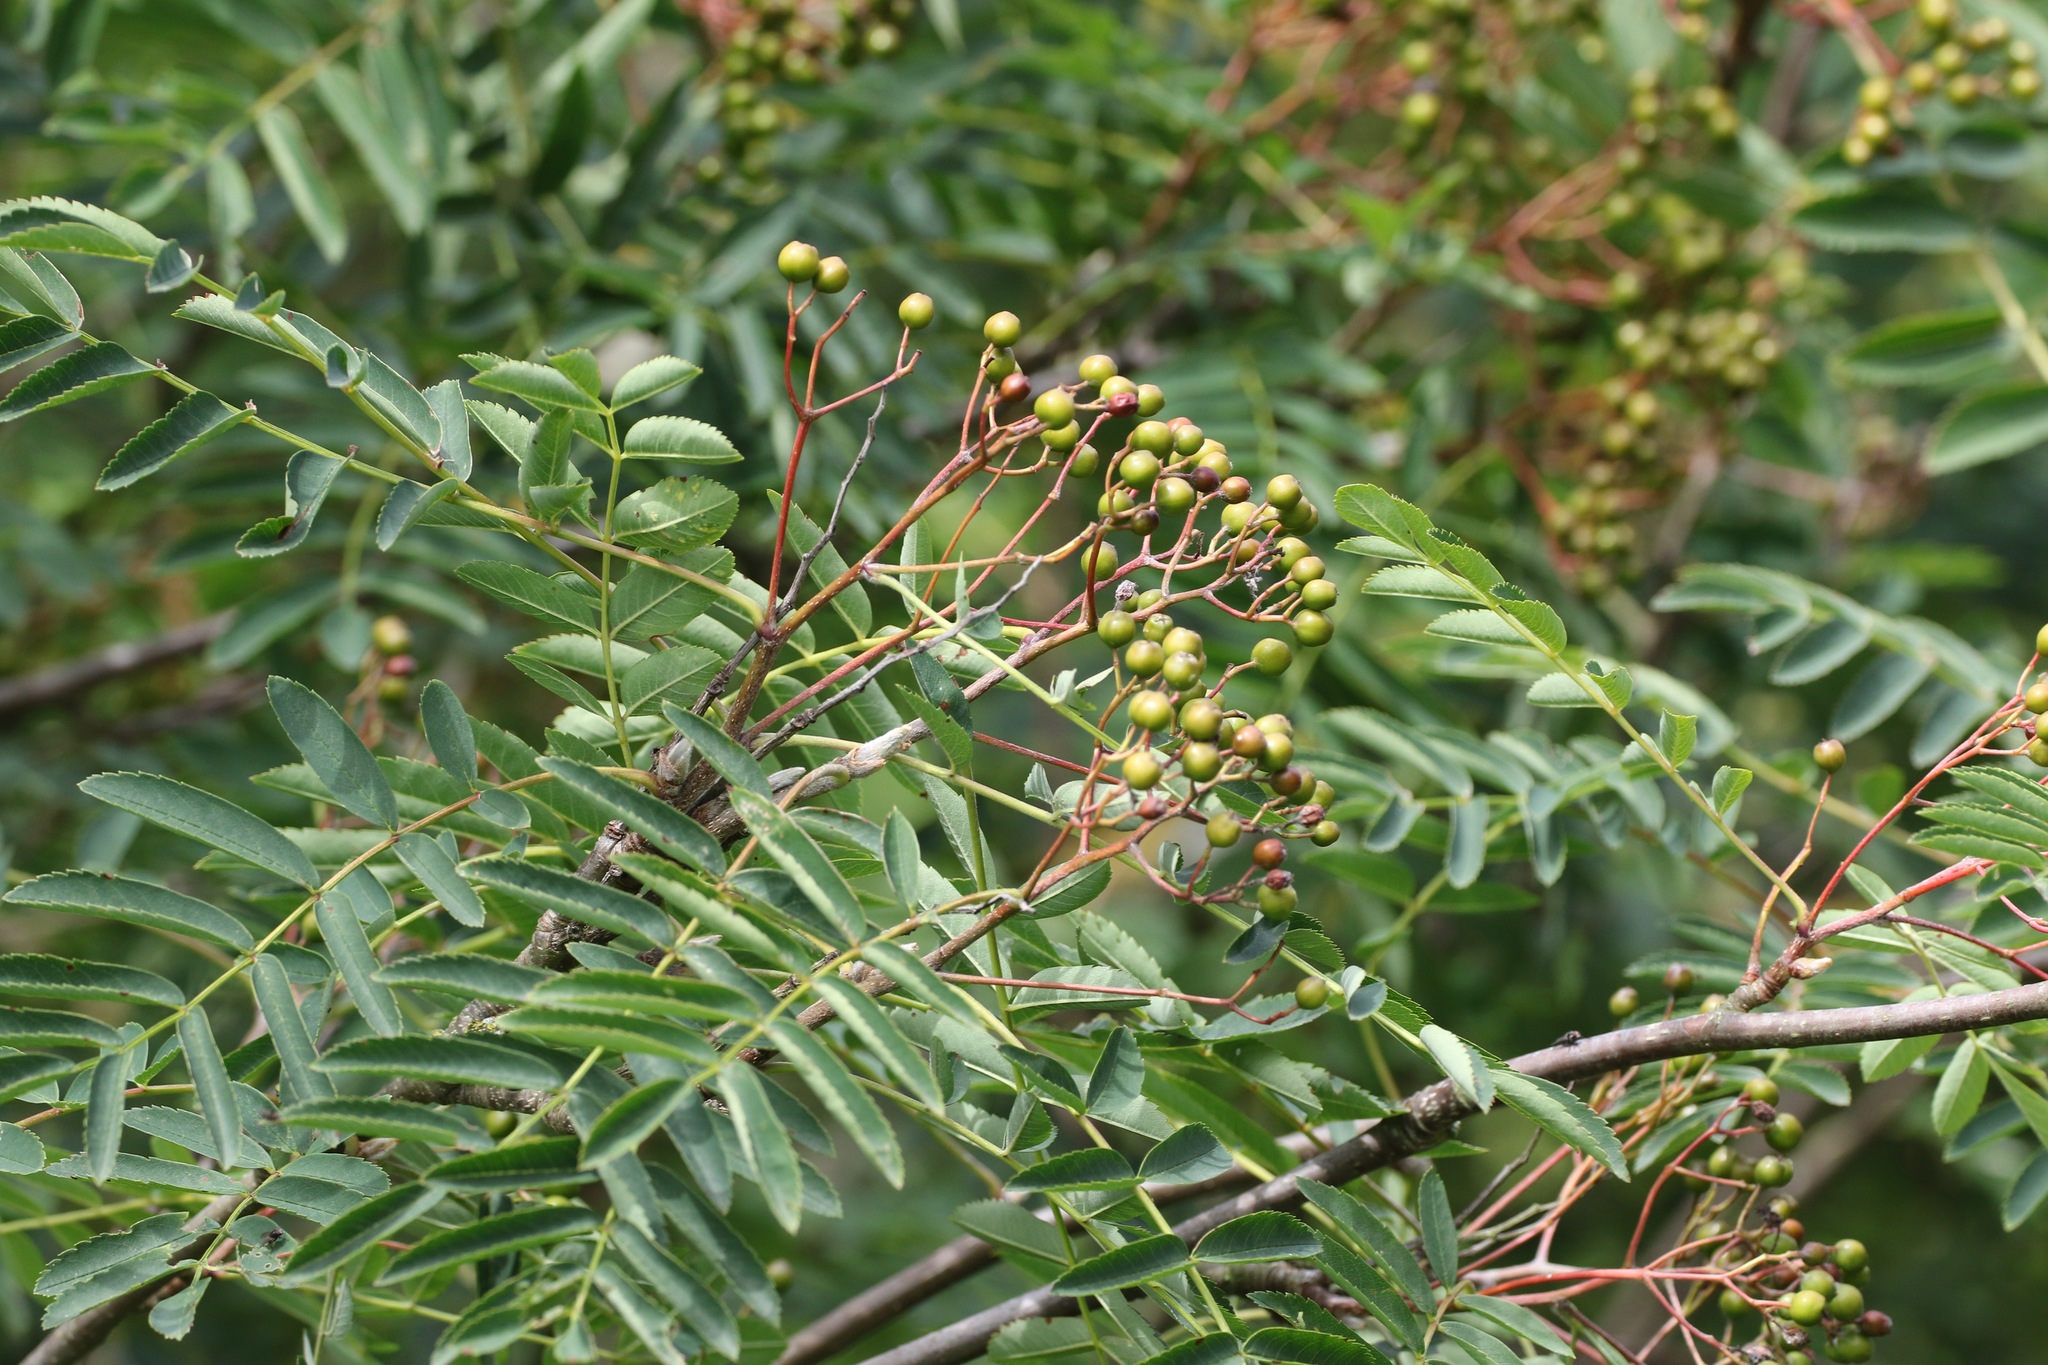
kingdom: Plantae
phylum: Tracheophyta
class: Magnoliopsida
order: Rosales
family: Rosaceae
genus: Sorbus
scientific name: Sorbus aucuparia
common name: Rowan
